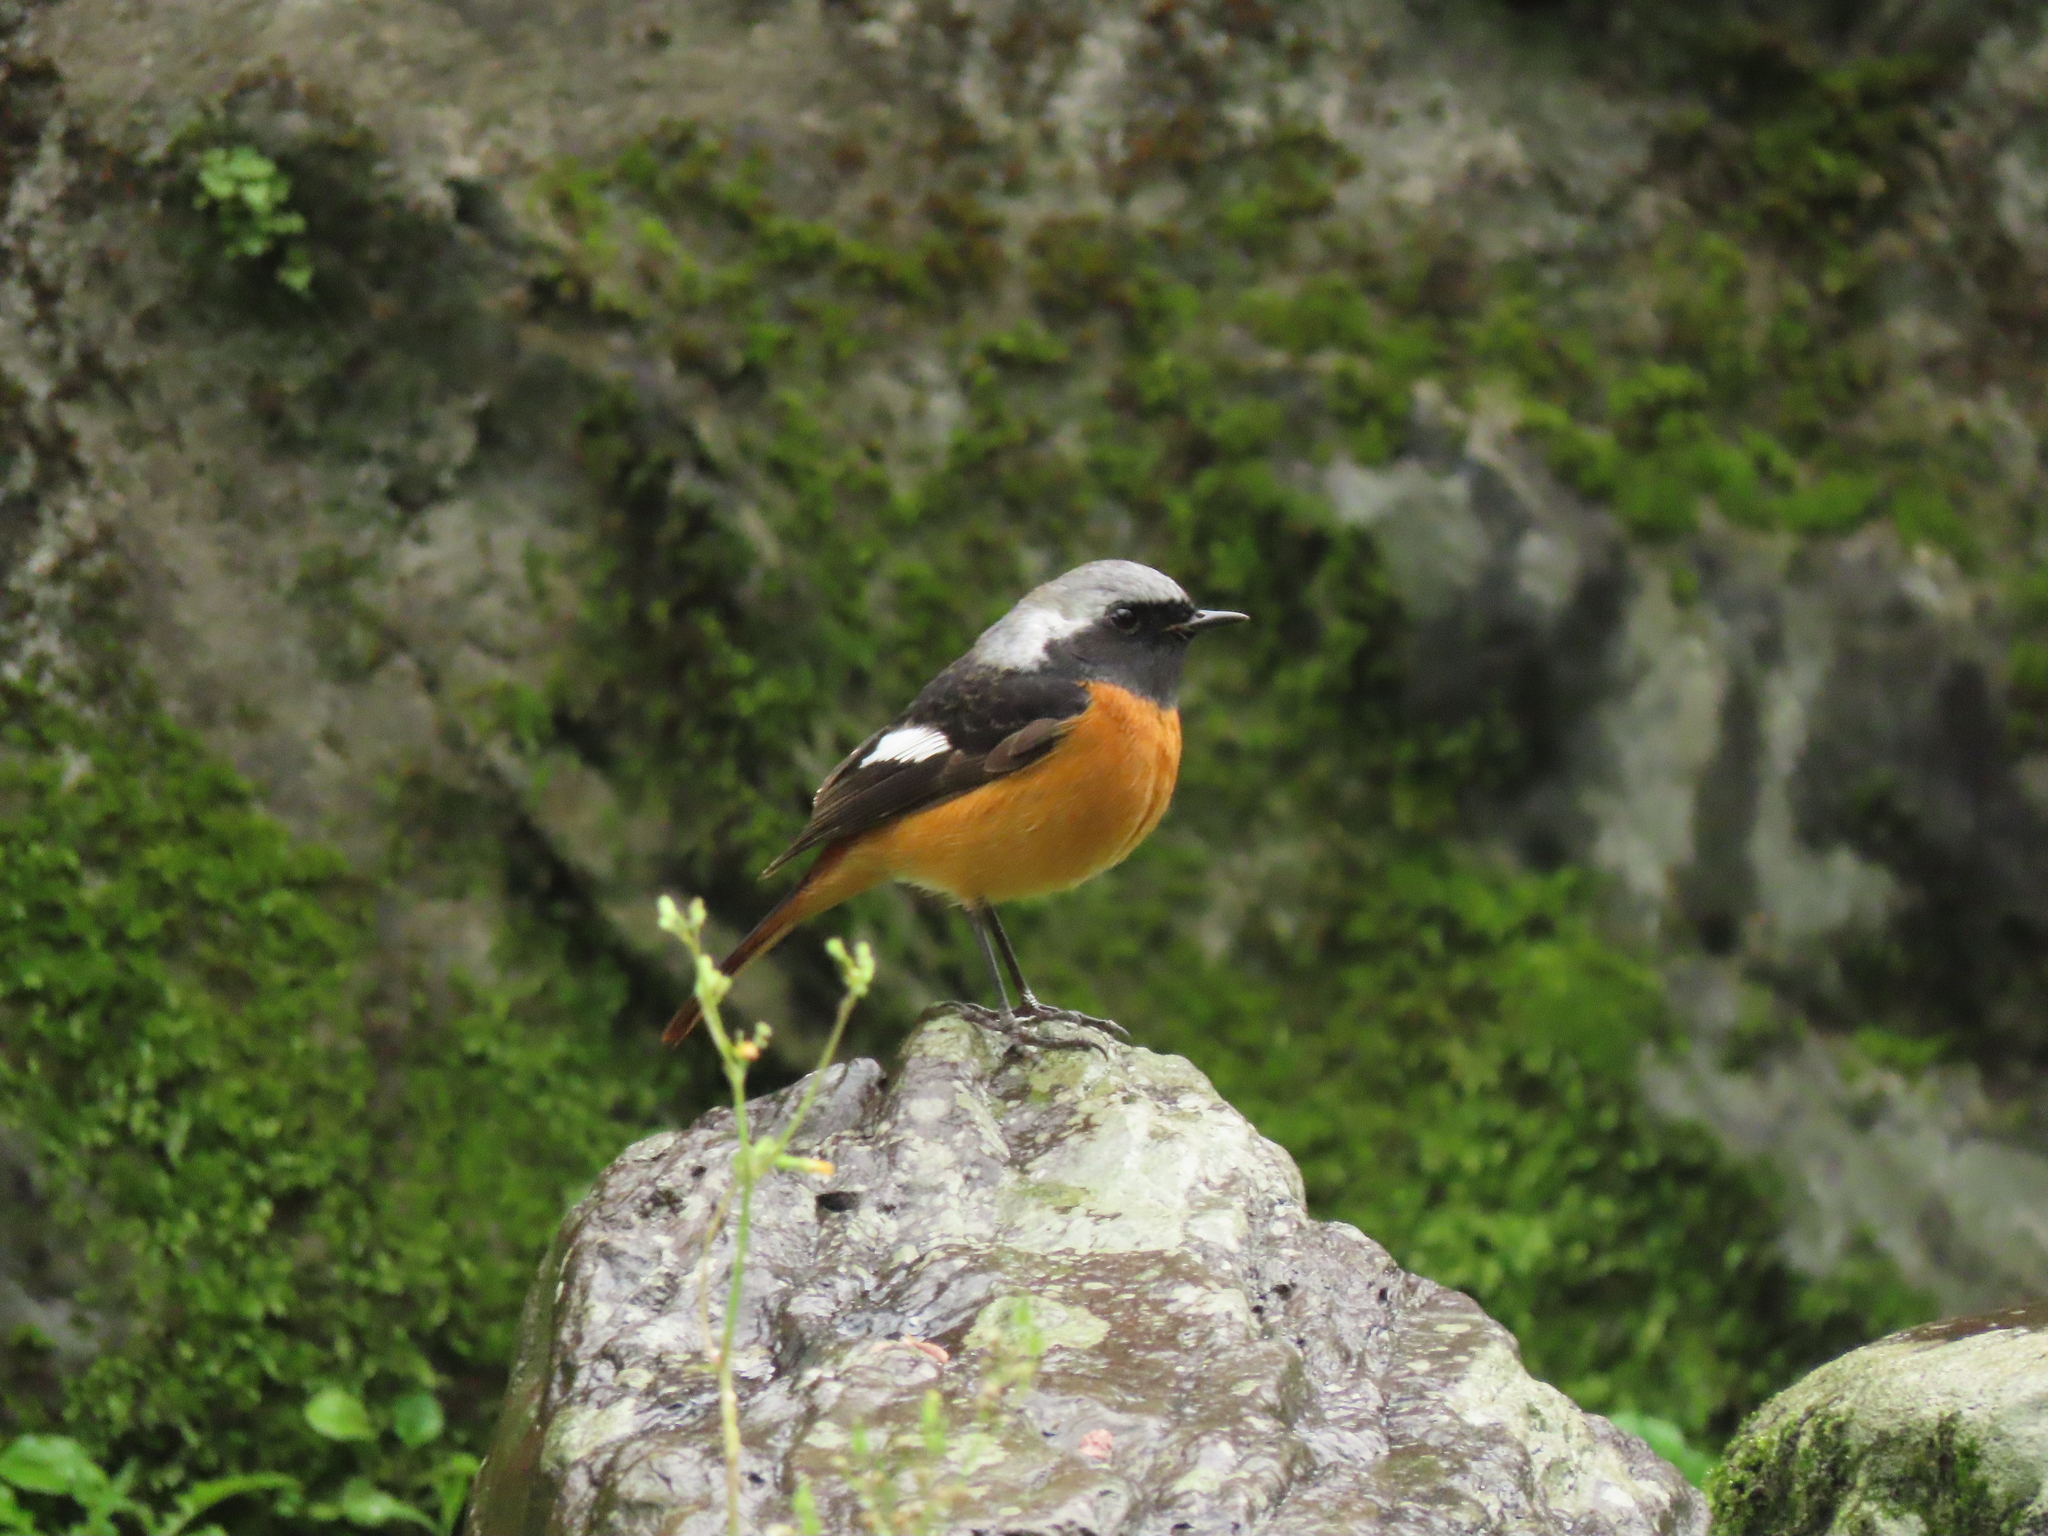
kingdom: Animalia
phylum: Chordata
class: Aves
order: Passeriformes
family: Muscicapidae
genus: Phoenicurus
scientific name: Phoenicurus auroreus
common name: Daurian redstart
